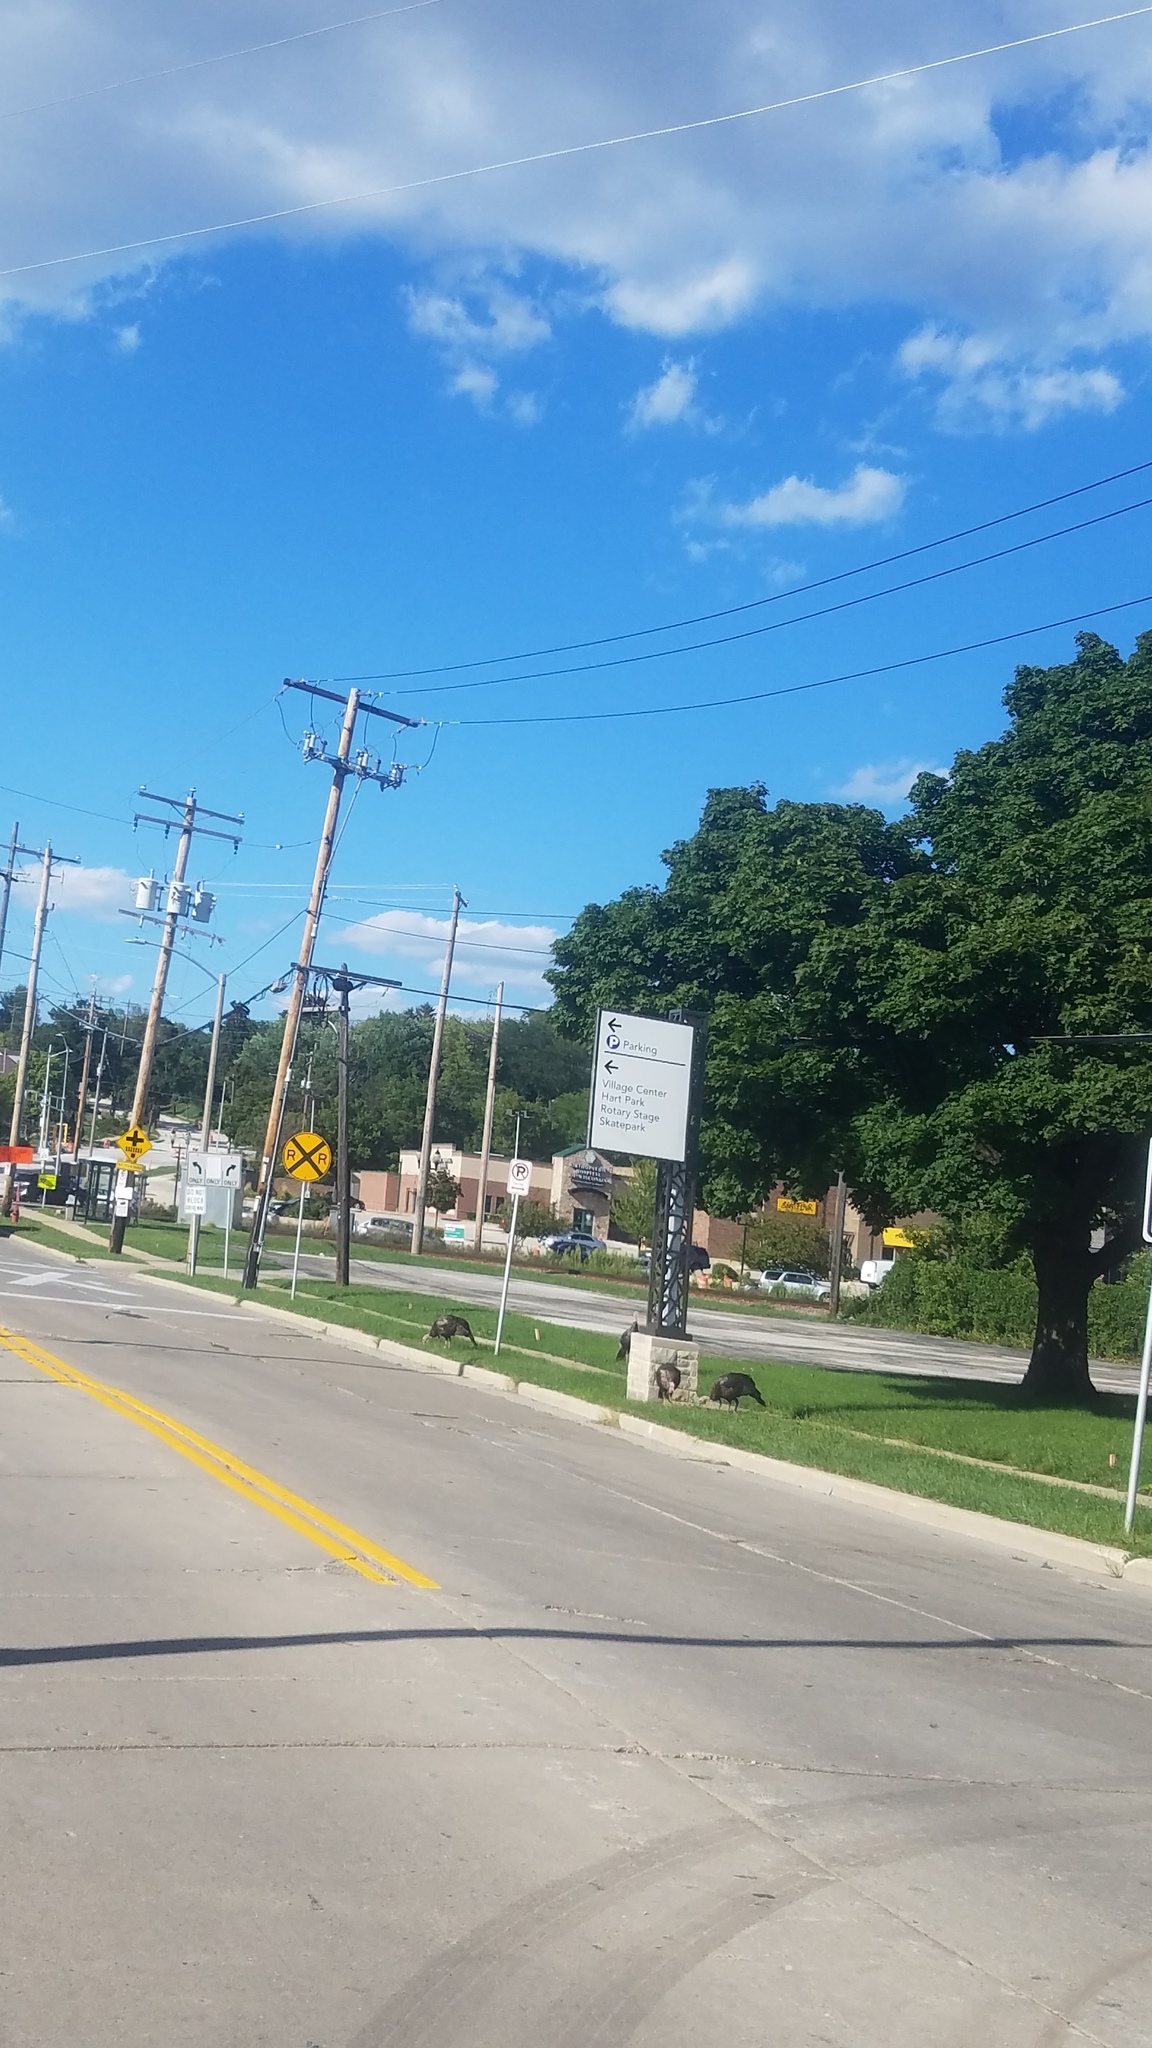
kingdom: Animalia
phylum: Chordata
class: Aves
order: Galliformes
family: Phasianidae
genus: Meleagris
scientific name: Meleagris gallopavo
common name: Wild turkey
